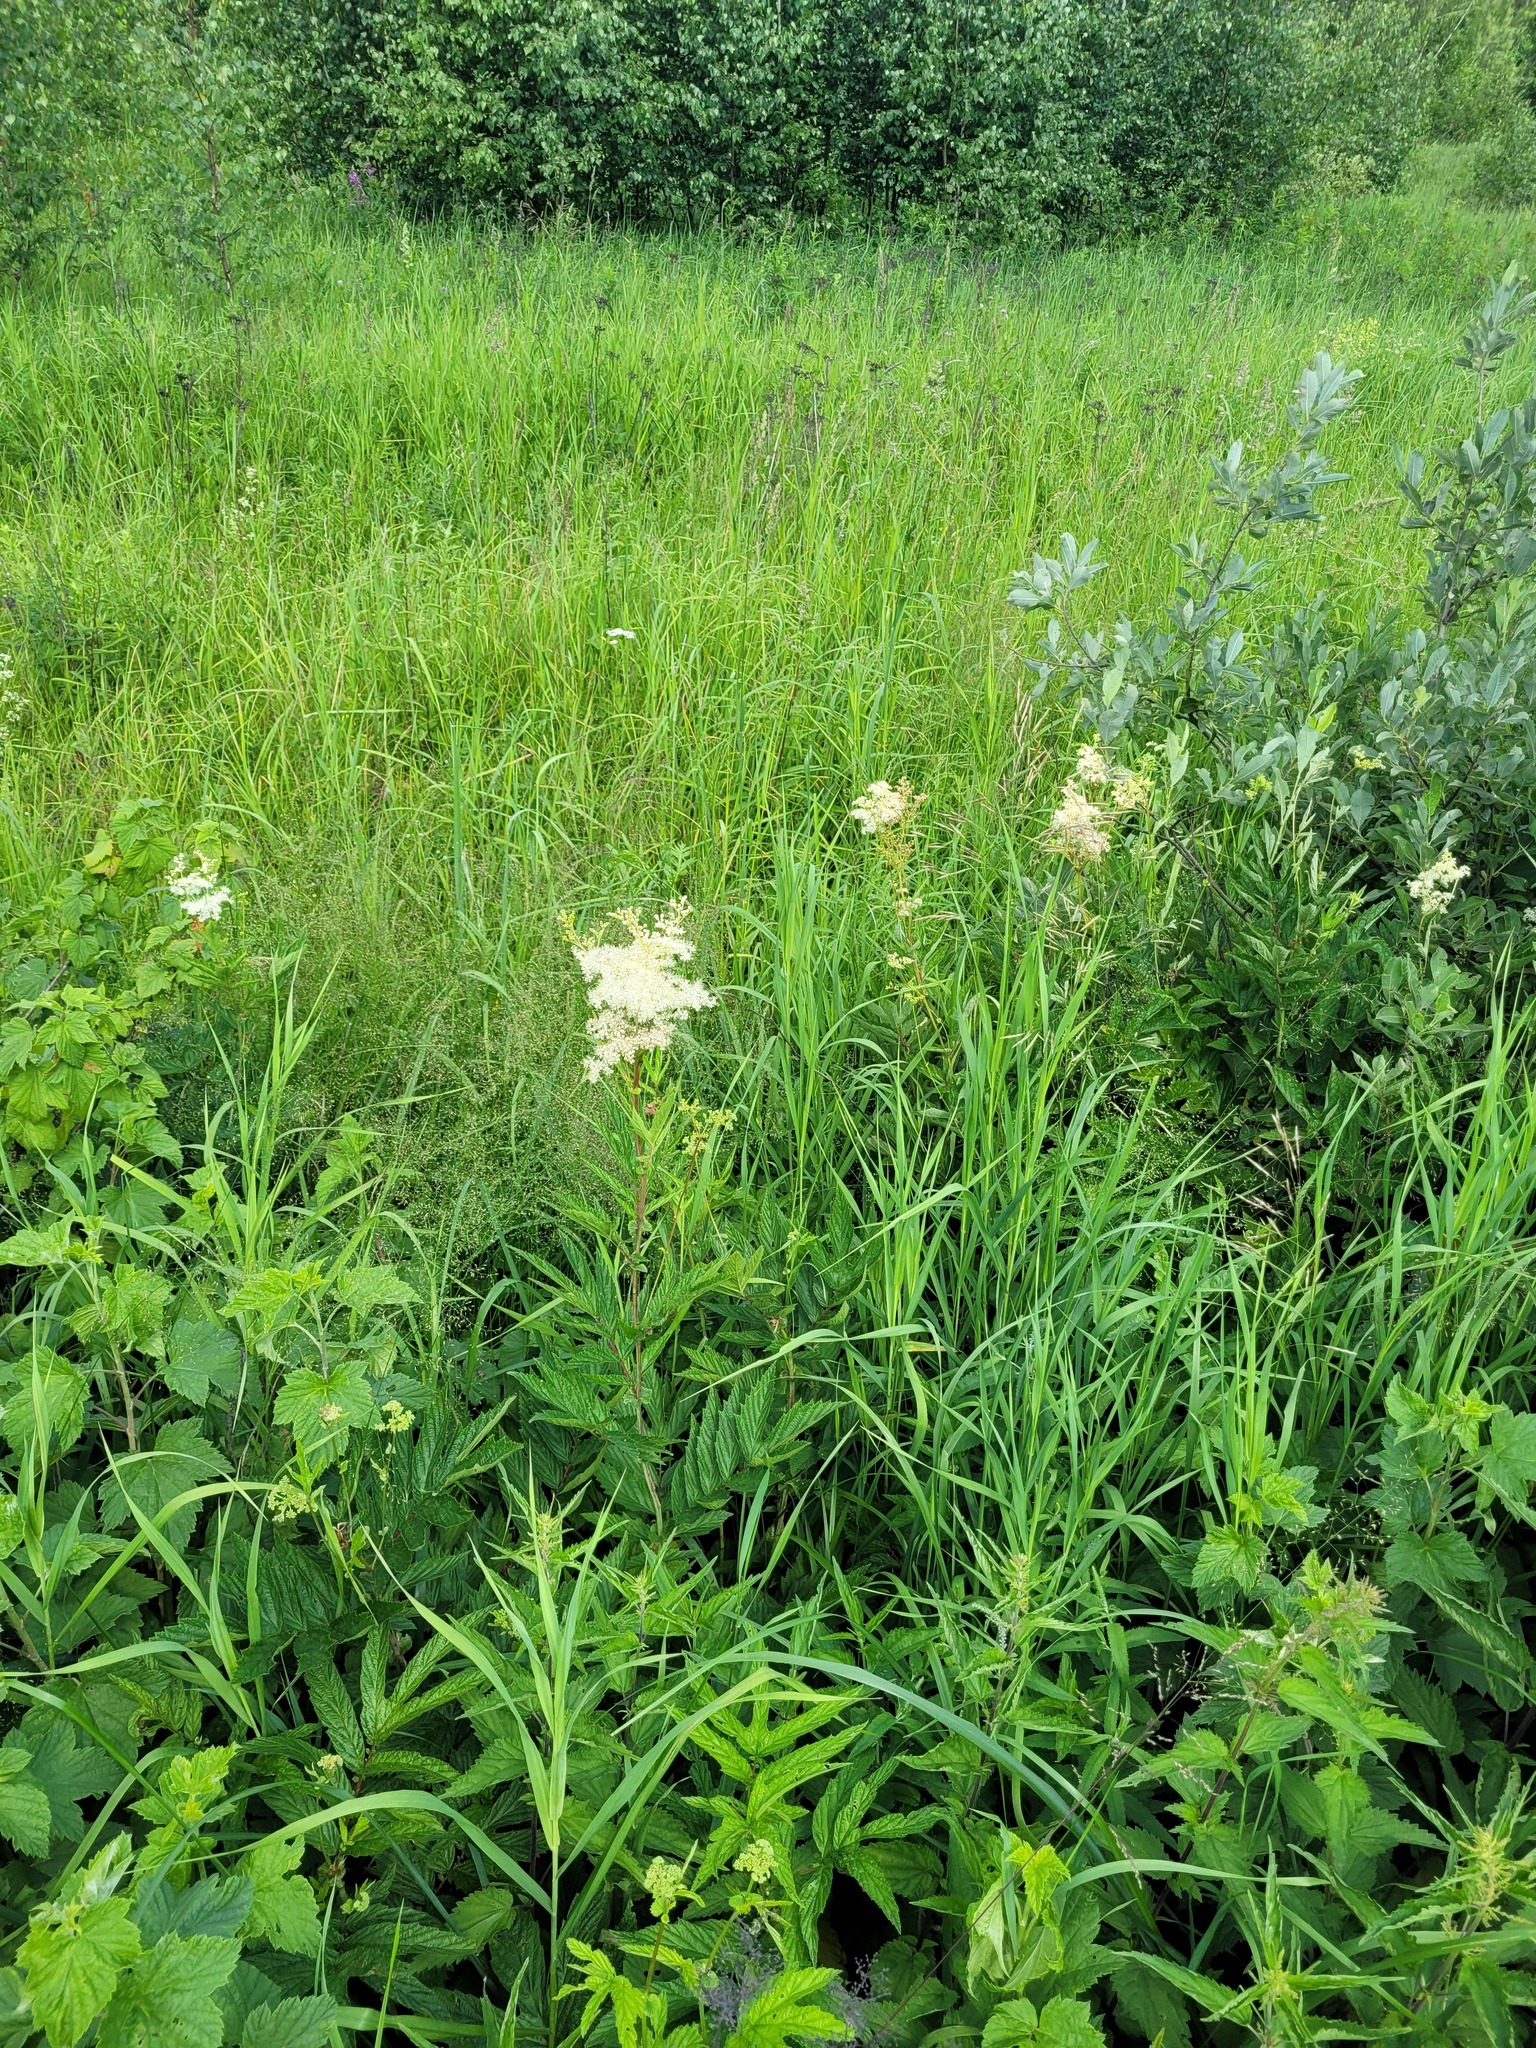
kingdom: Plantae
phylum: Tracheophyta
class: Magnoliopsida
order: Rosales
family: Rosaceae
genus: Filipendula
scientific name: Filipendula ulmaria
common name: Meadowsweet
